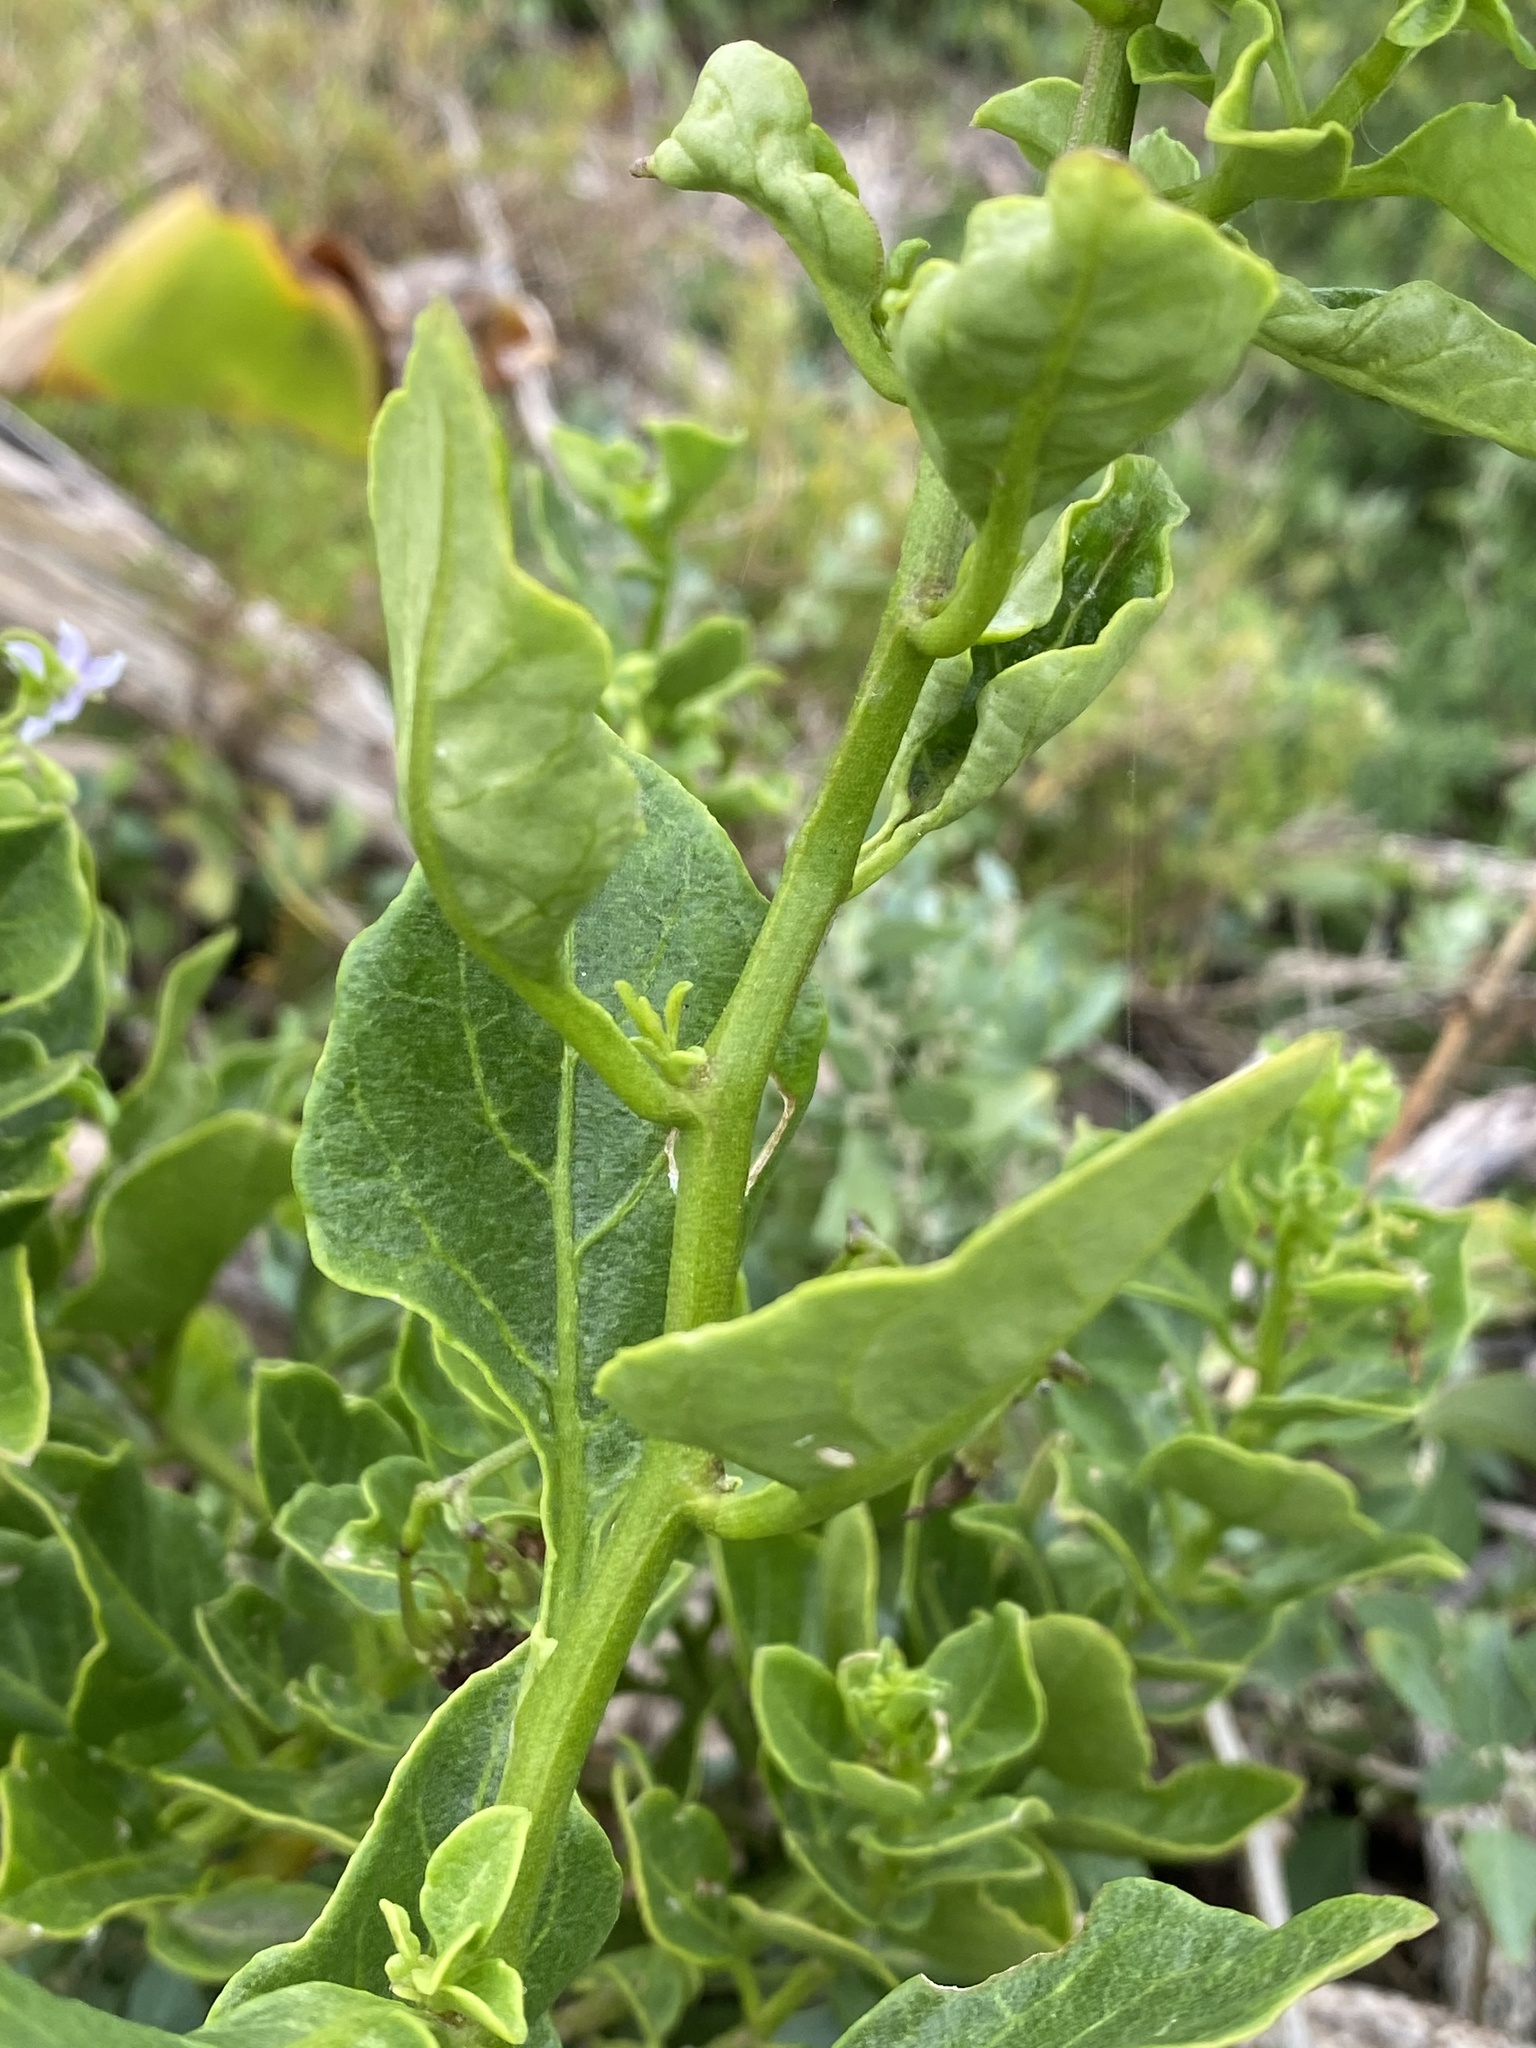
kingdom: Plantae
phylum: Tracheophyta
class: Magnoliopsida
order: Solanales
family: Solanaceae
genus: Solanum
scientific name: Solanum africanum
